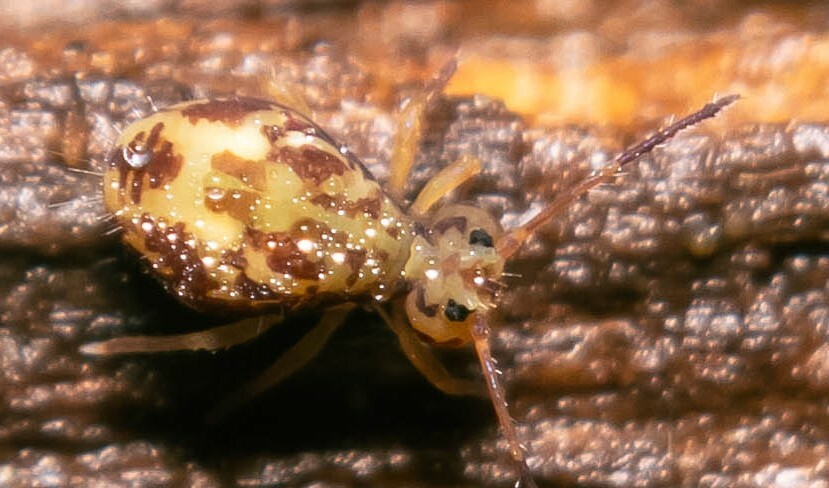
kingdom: Animalia
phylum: Arthropoda
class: Collembola
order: Symphypleona
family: Dicyrtomidae
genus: Dicyrtomina
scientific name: Dicyrtomina saundersi
